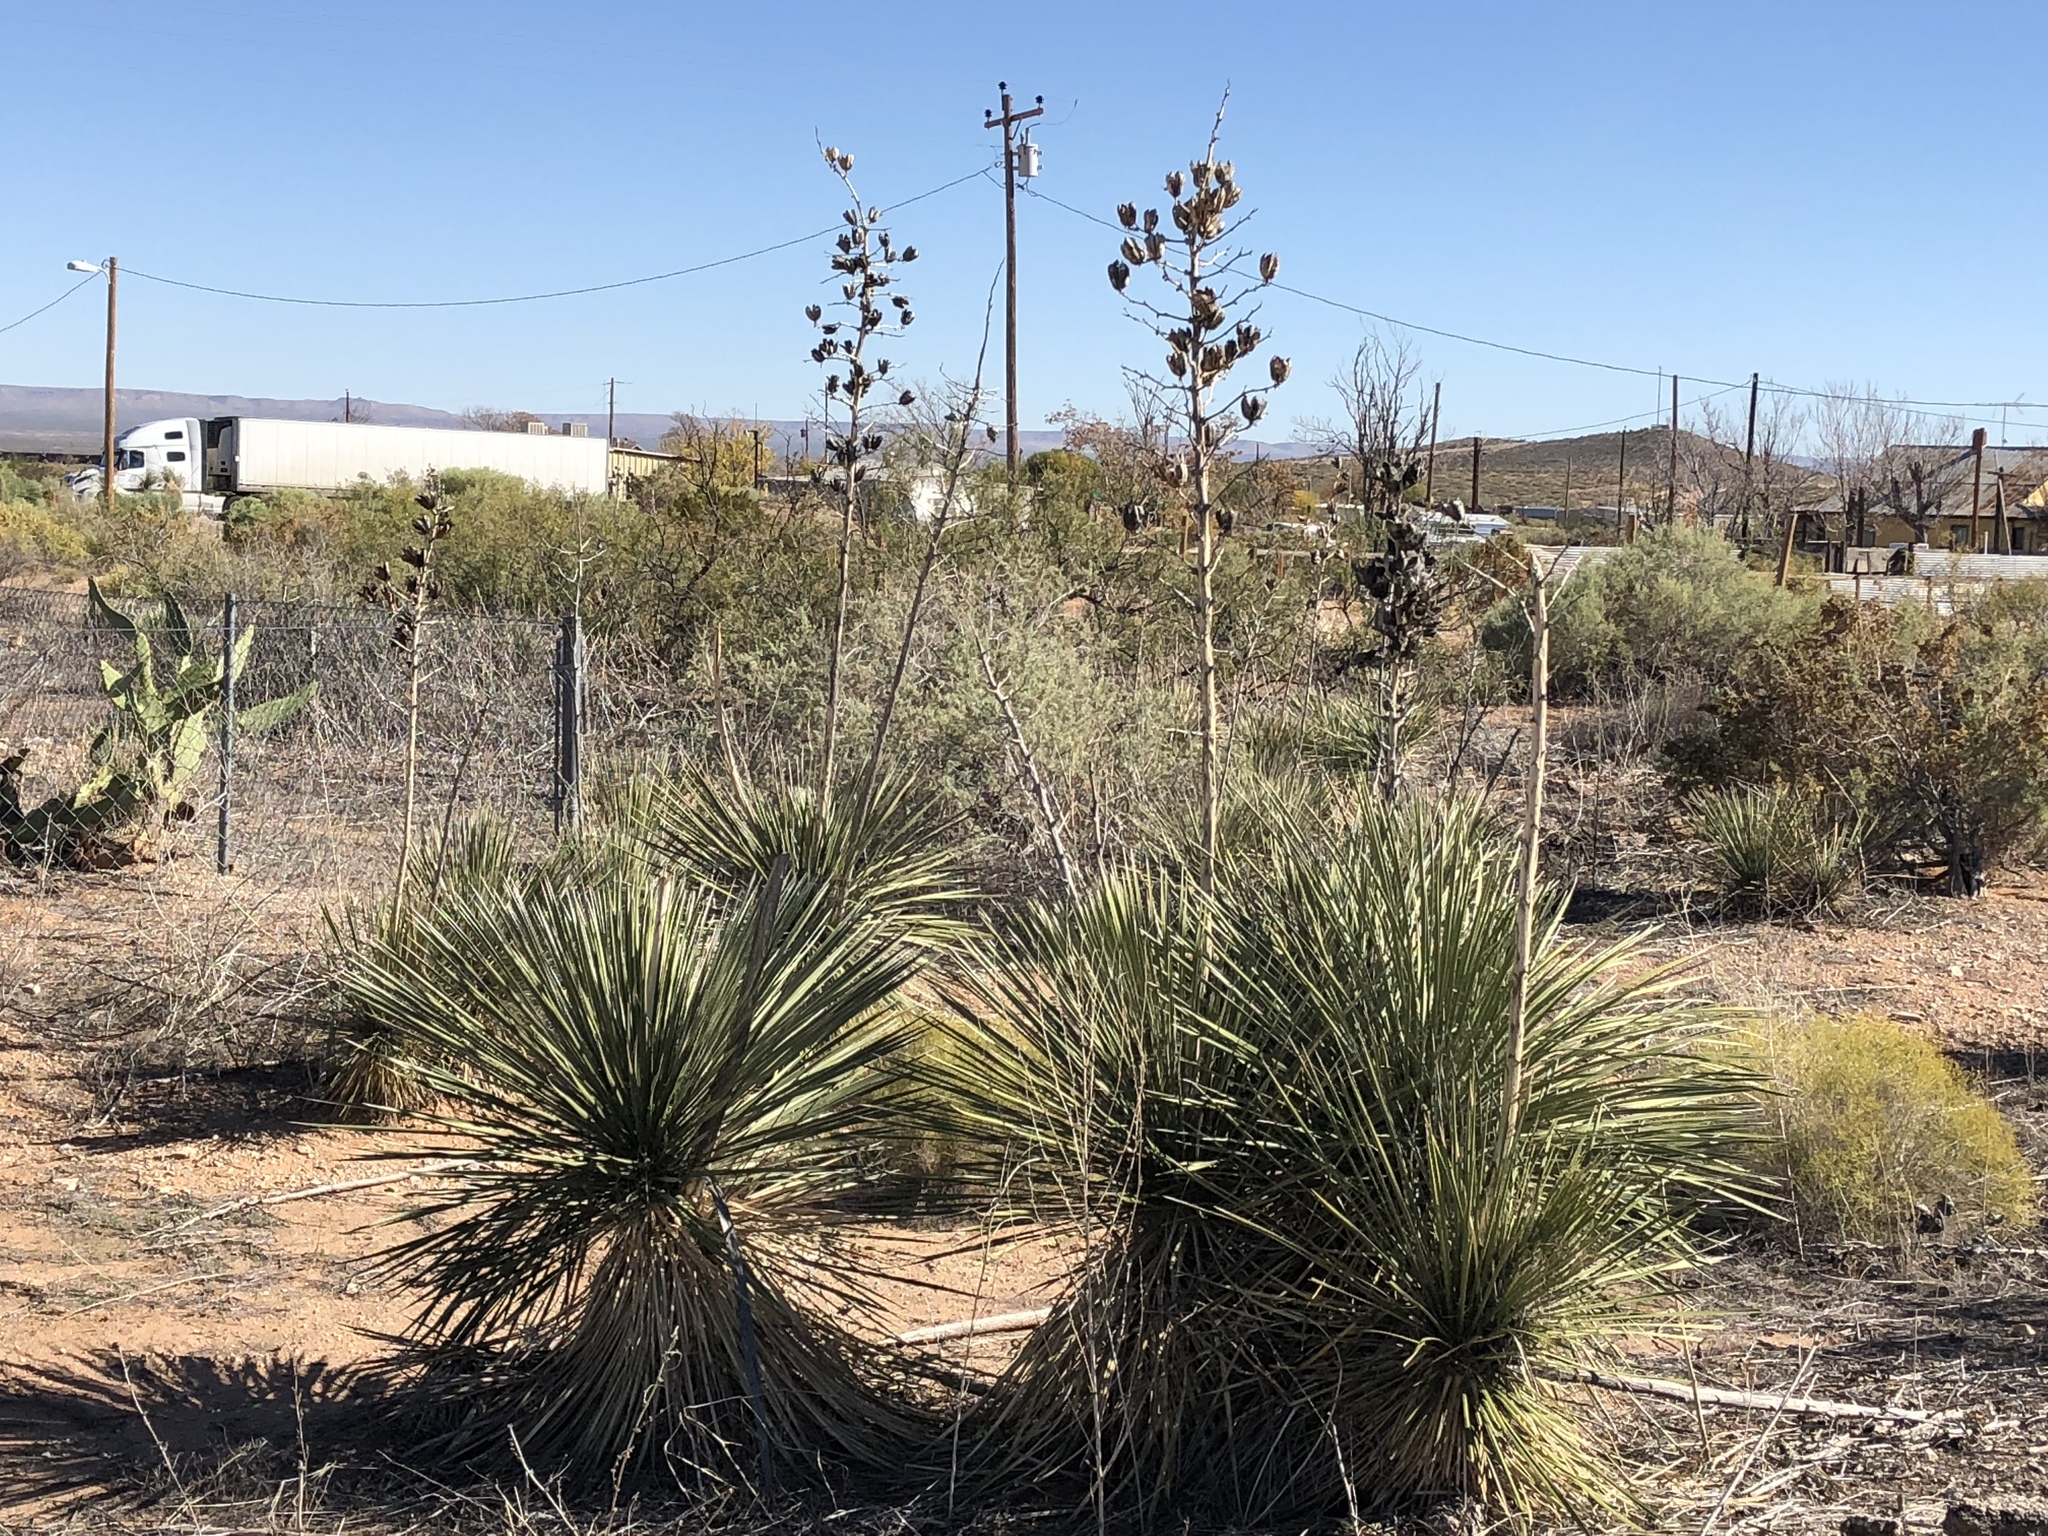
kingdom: Plantae
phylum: Tracheophyta
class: Liliopsida
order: Asparagales
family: Asparagaceae
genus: Yucca
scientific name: Yucca elata
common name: Palmella
